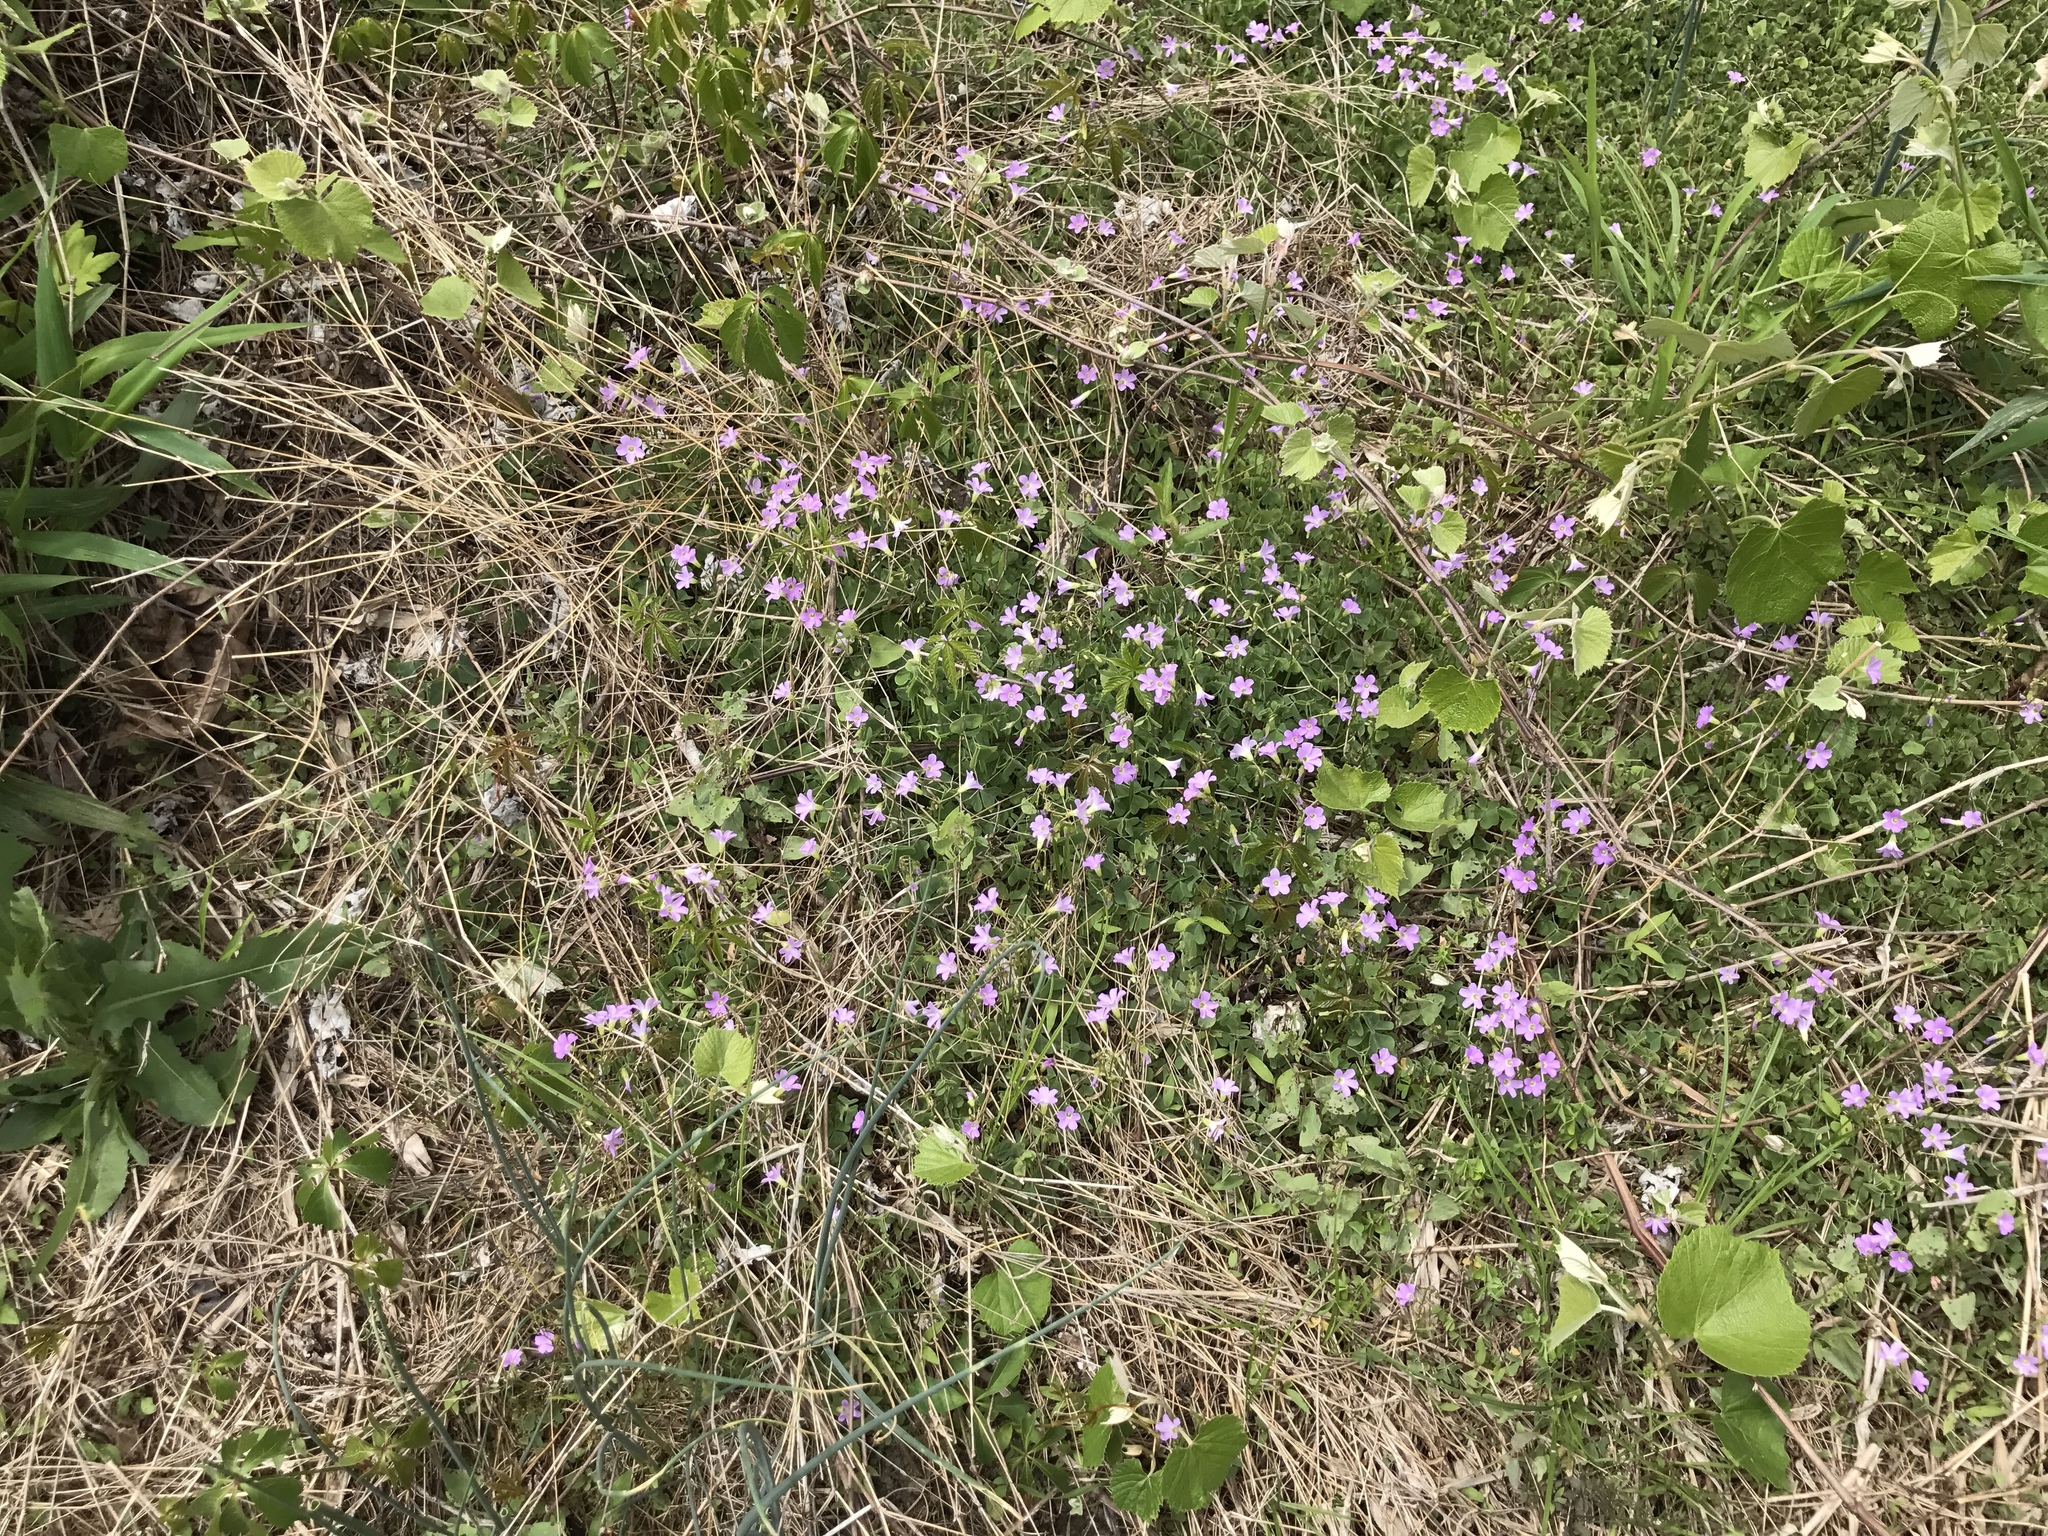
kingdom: Plantae
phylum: Tracheophyta
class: Magnoliopsida
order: Oxalidales
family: Oxalidaceae
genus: Oxalis
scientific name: Oxalis violacea
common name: Violet wood-sorrel
